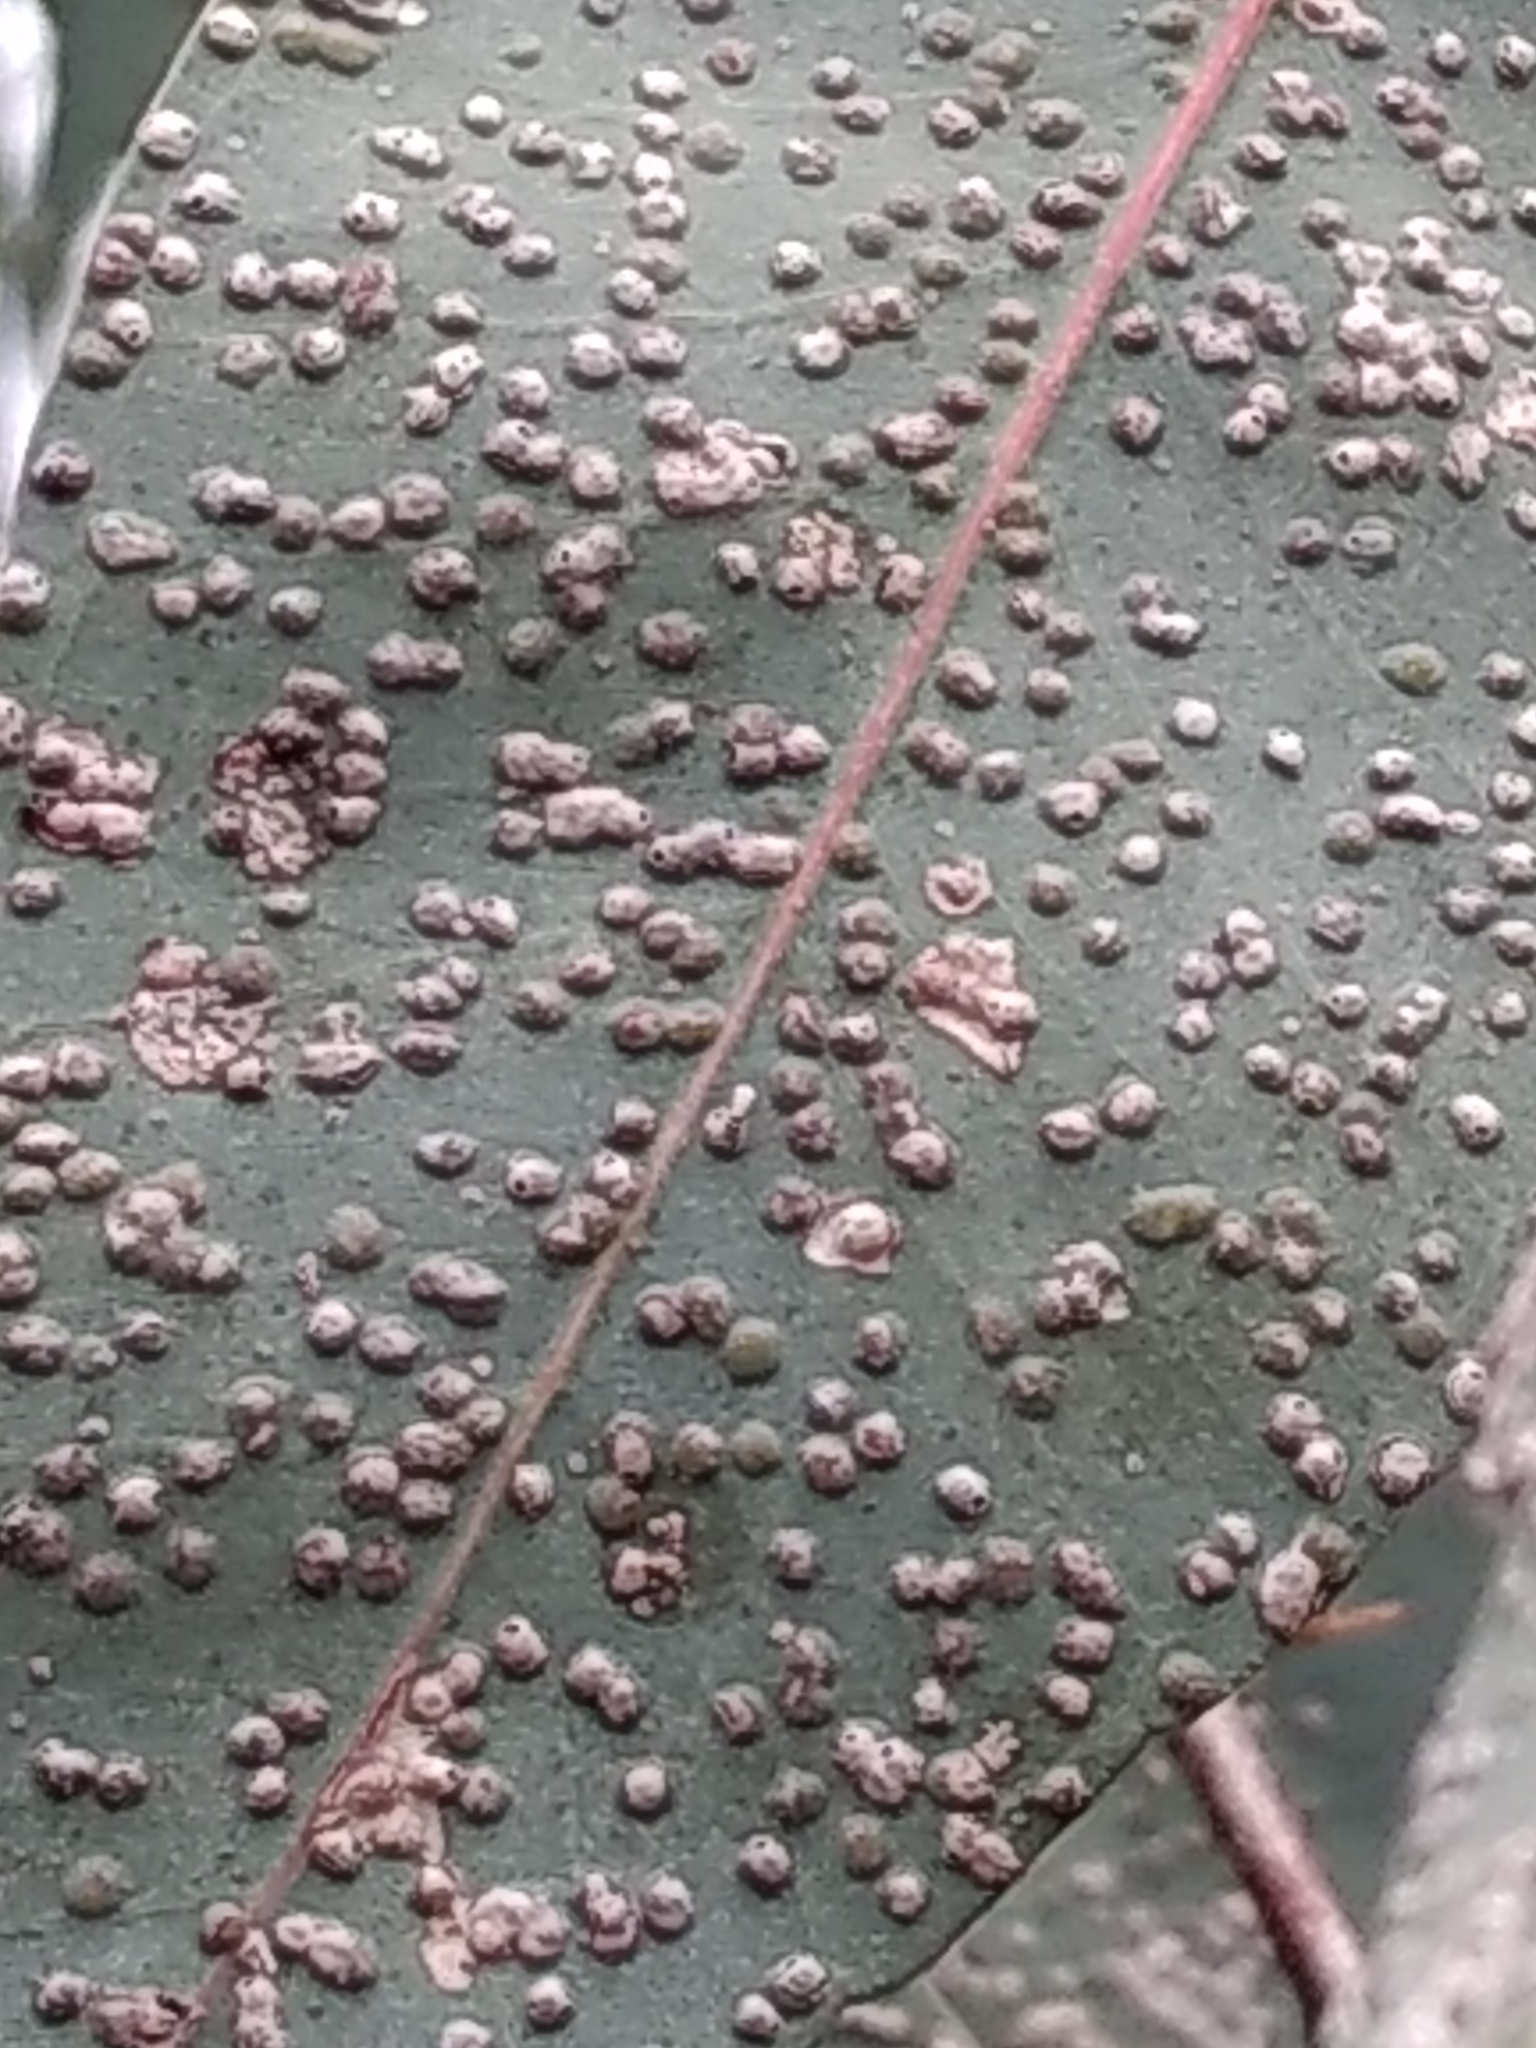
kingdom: Animalia
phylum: Arthropoda
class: Insecta
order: Hymenoptera
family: Eulophidae
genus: Ophelimus
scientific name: Ophelimus maskelli
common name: Gall wasp
